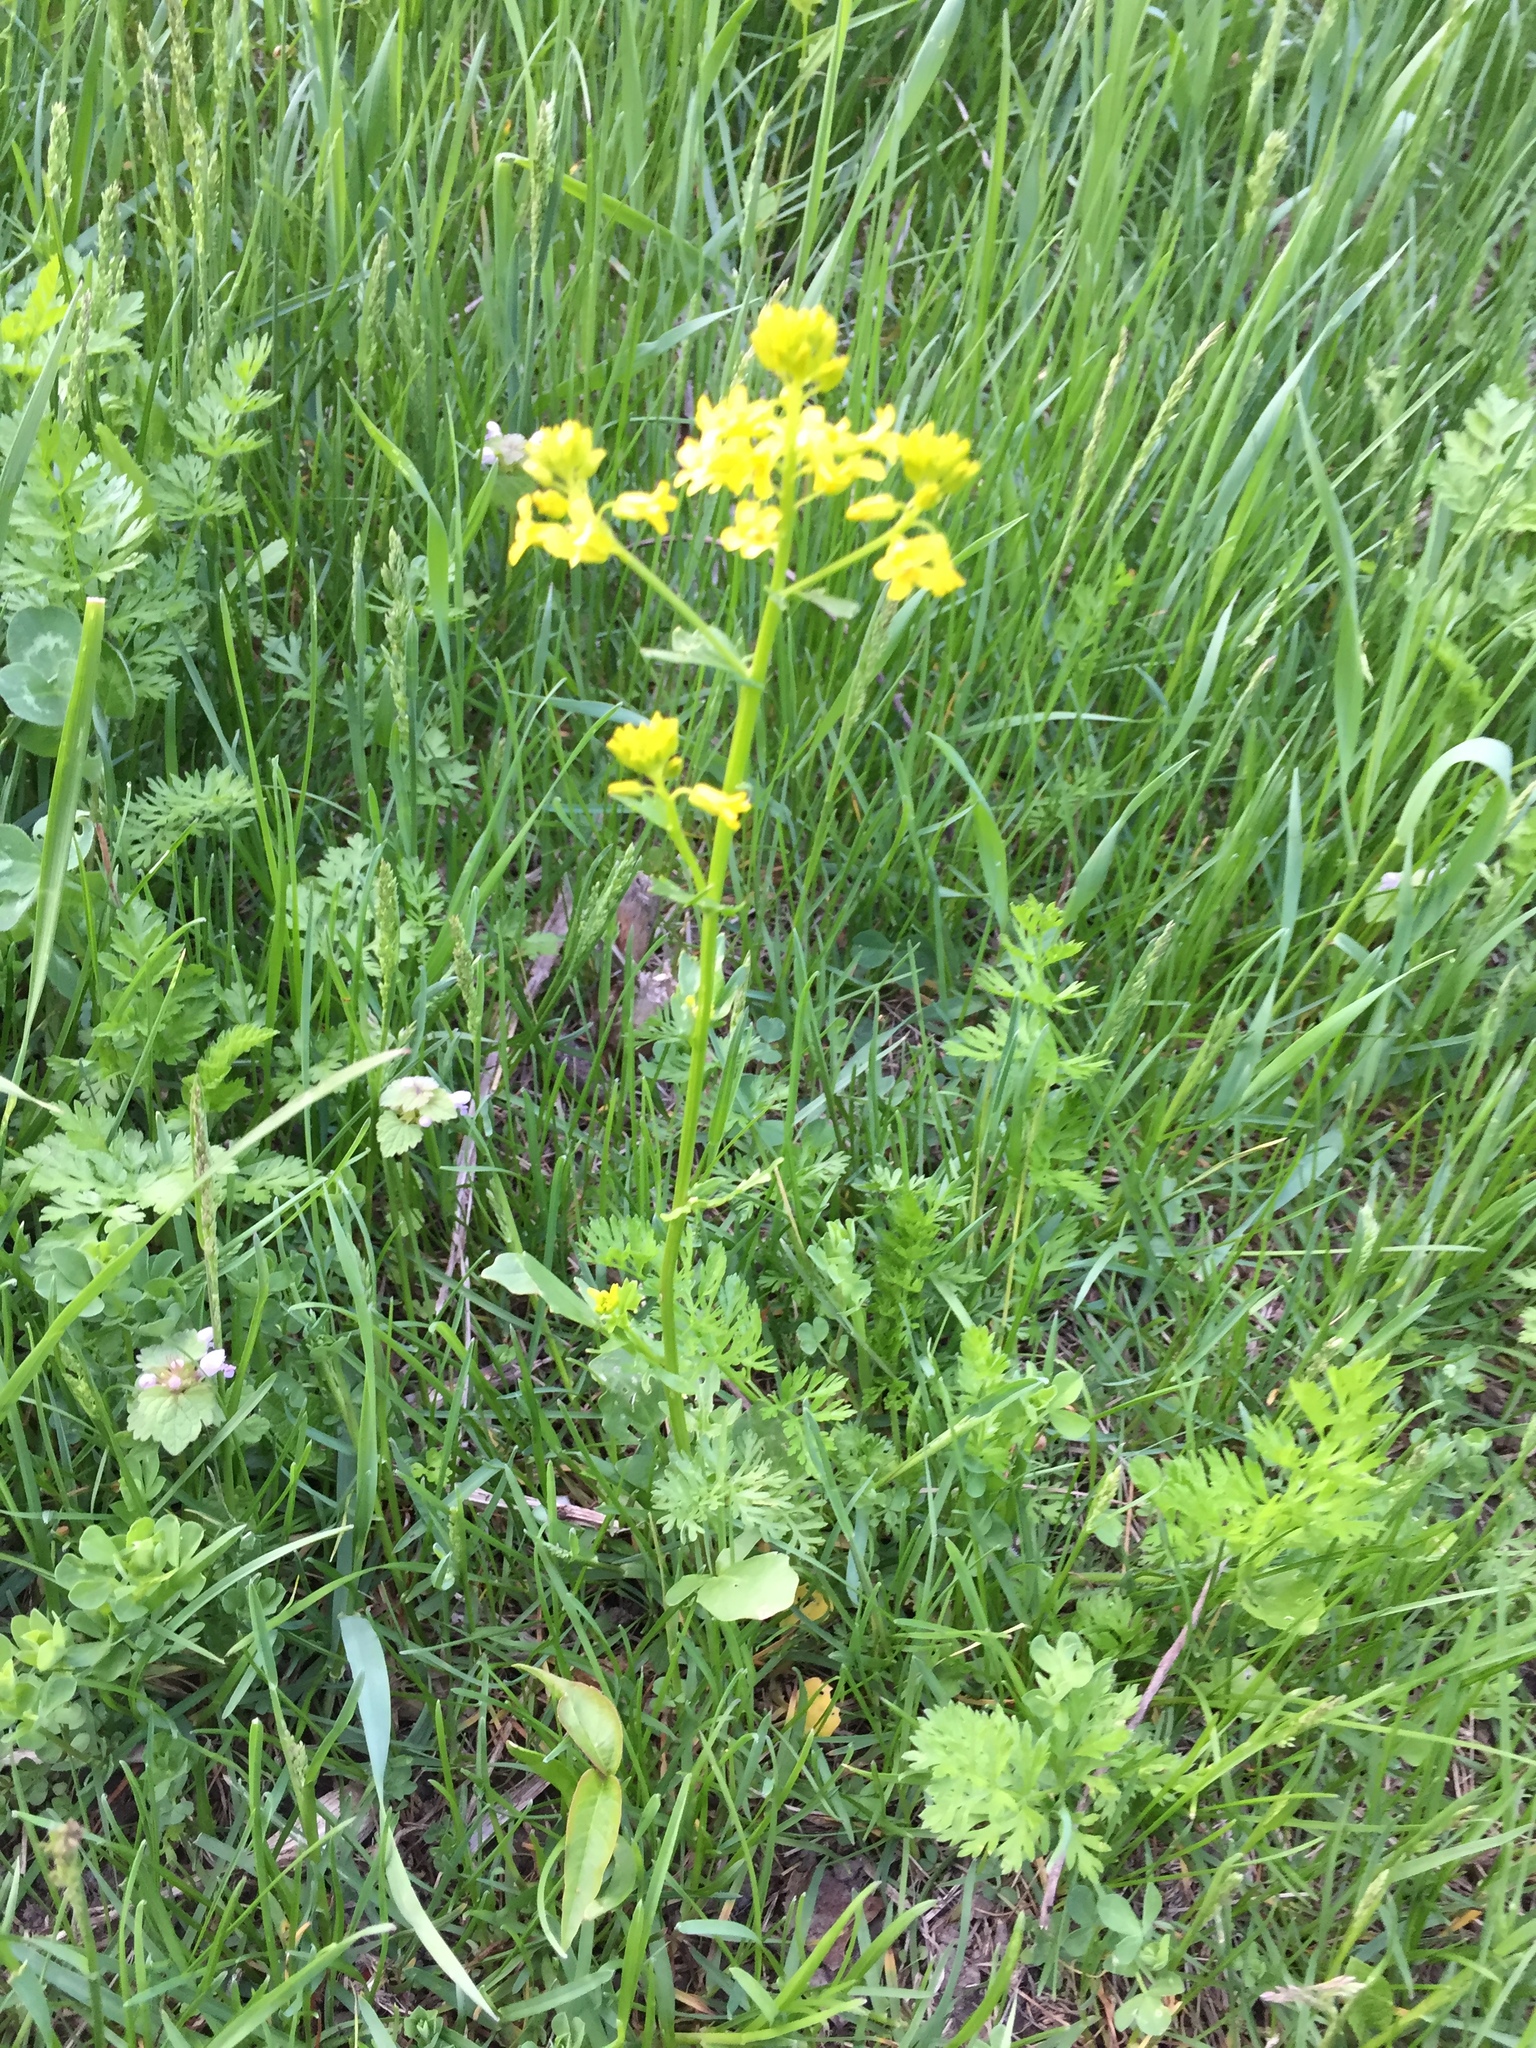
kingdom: Plantae
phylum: Tracheophyta
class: Magnoliopsida
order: Brassicales
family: Brassicaceae
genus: Barbarea
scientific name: Barbarea vulgaris
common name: Cressy-greens
